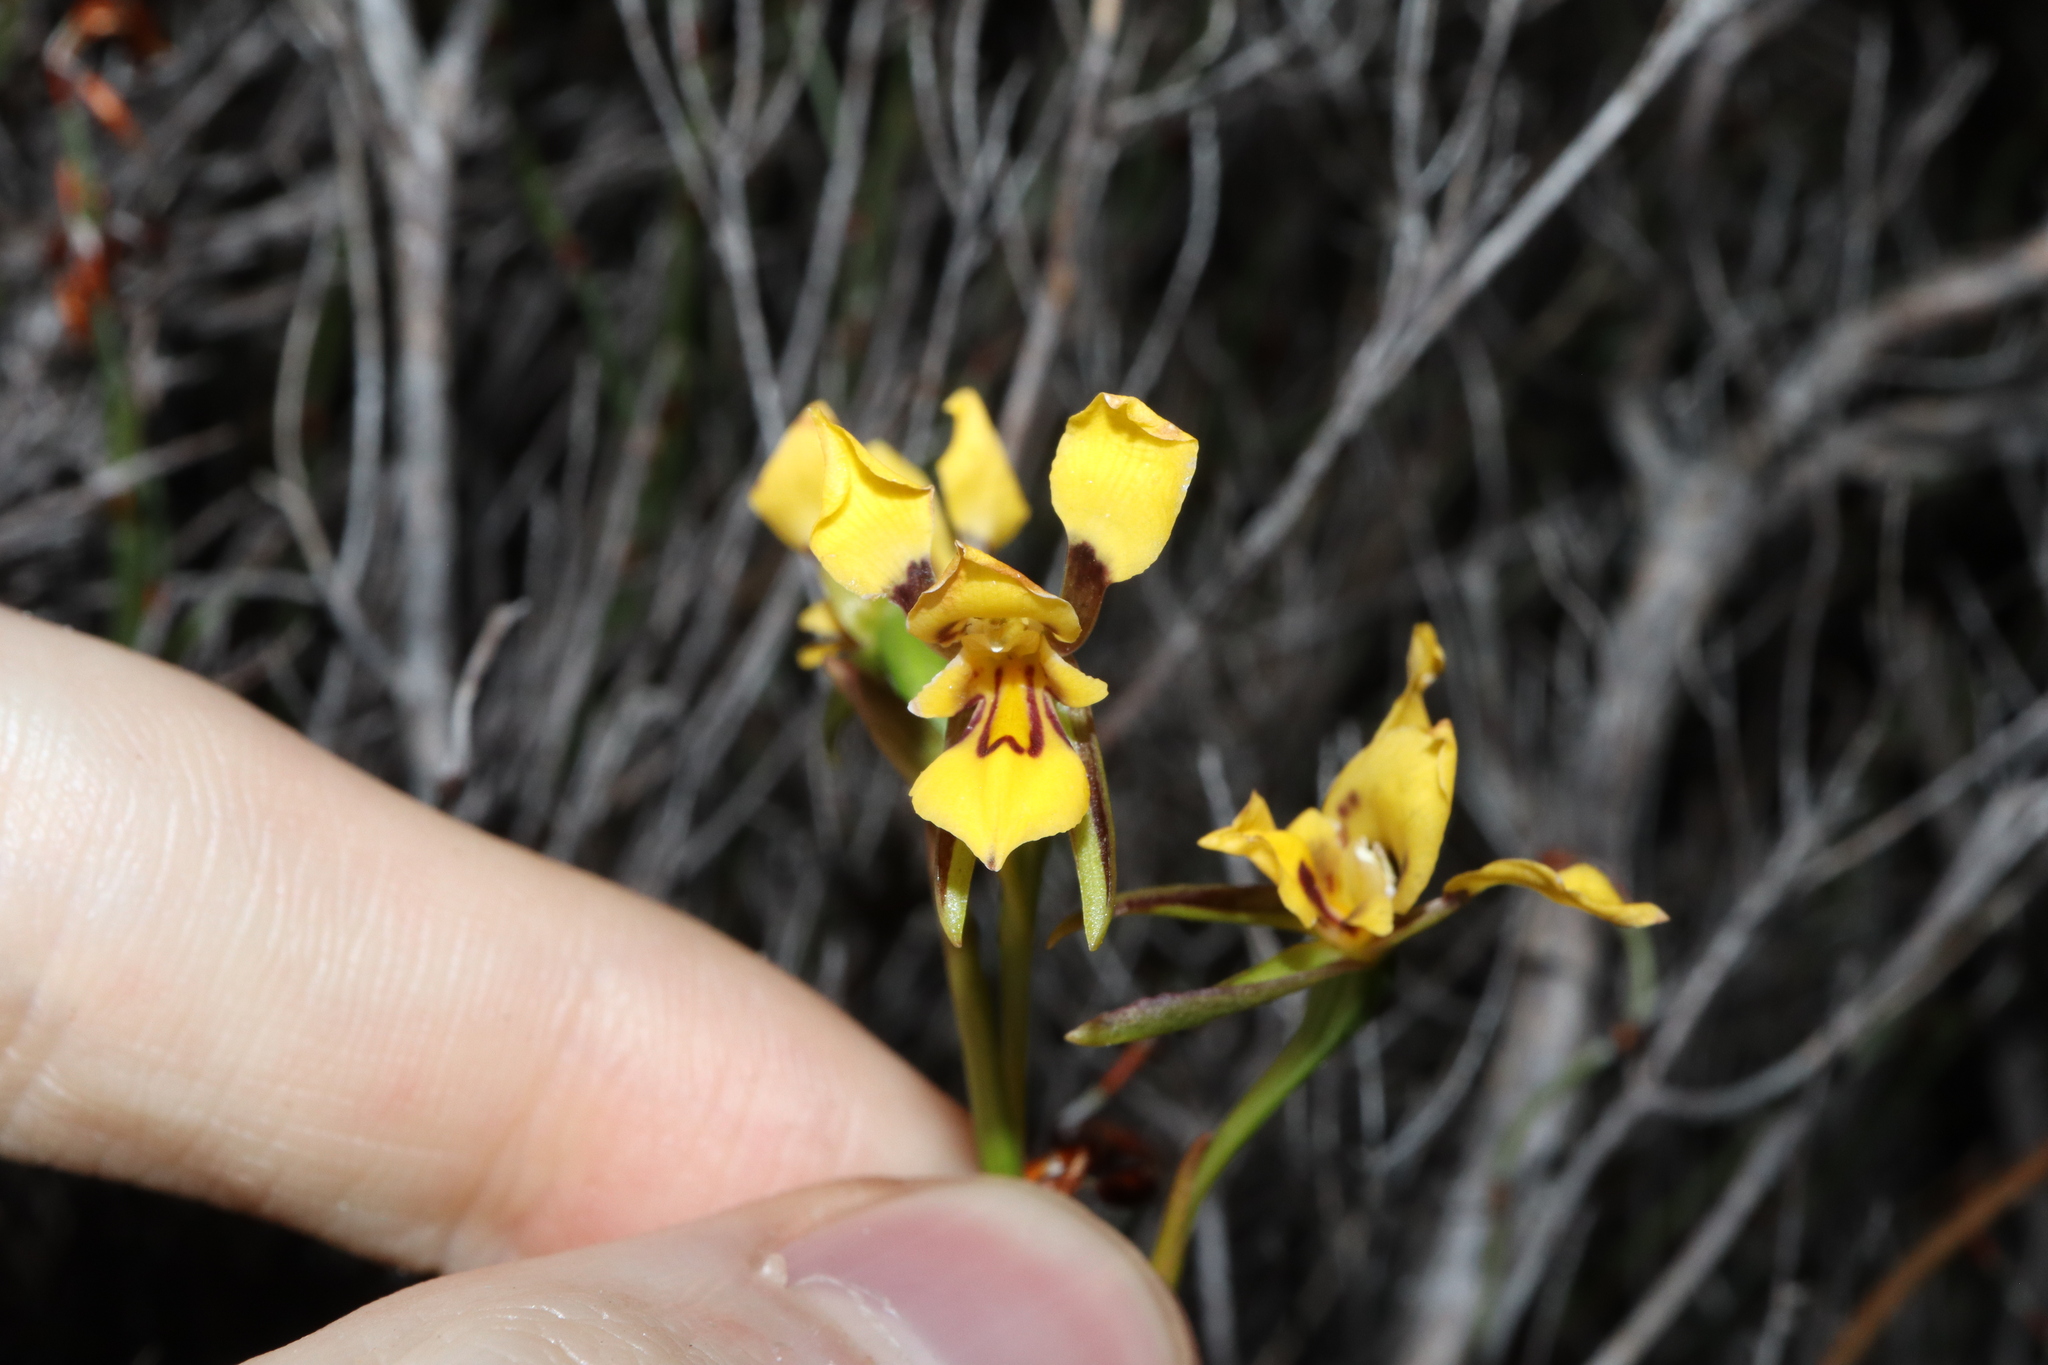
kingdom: Plantae
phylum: Tracheophyta
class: Liliopsida
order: Asparagales
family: Orchidaceae
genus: Diuris
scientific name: Diuris concinna
